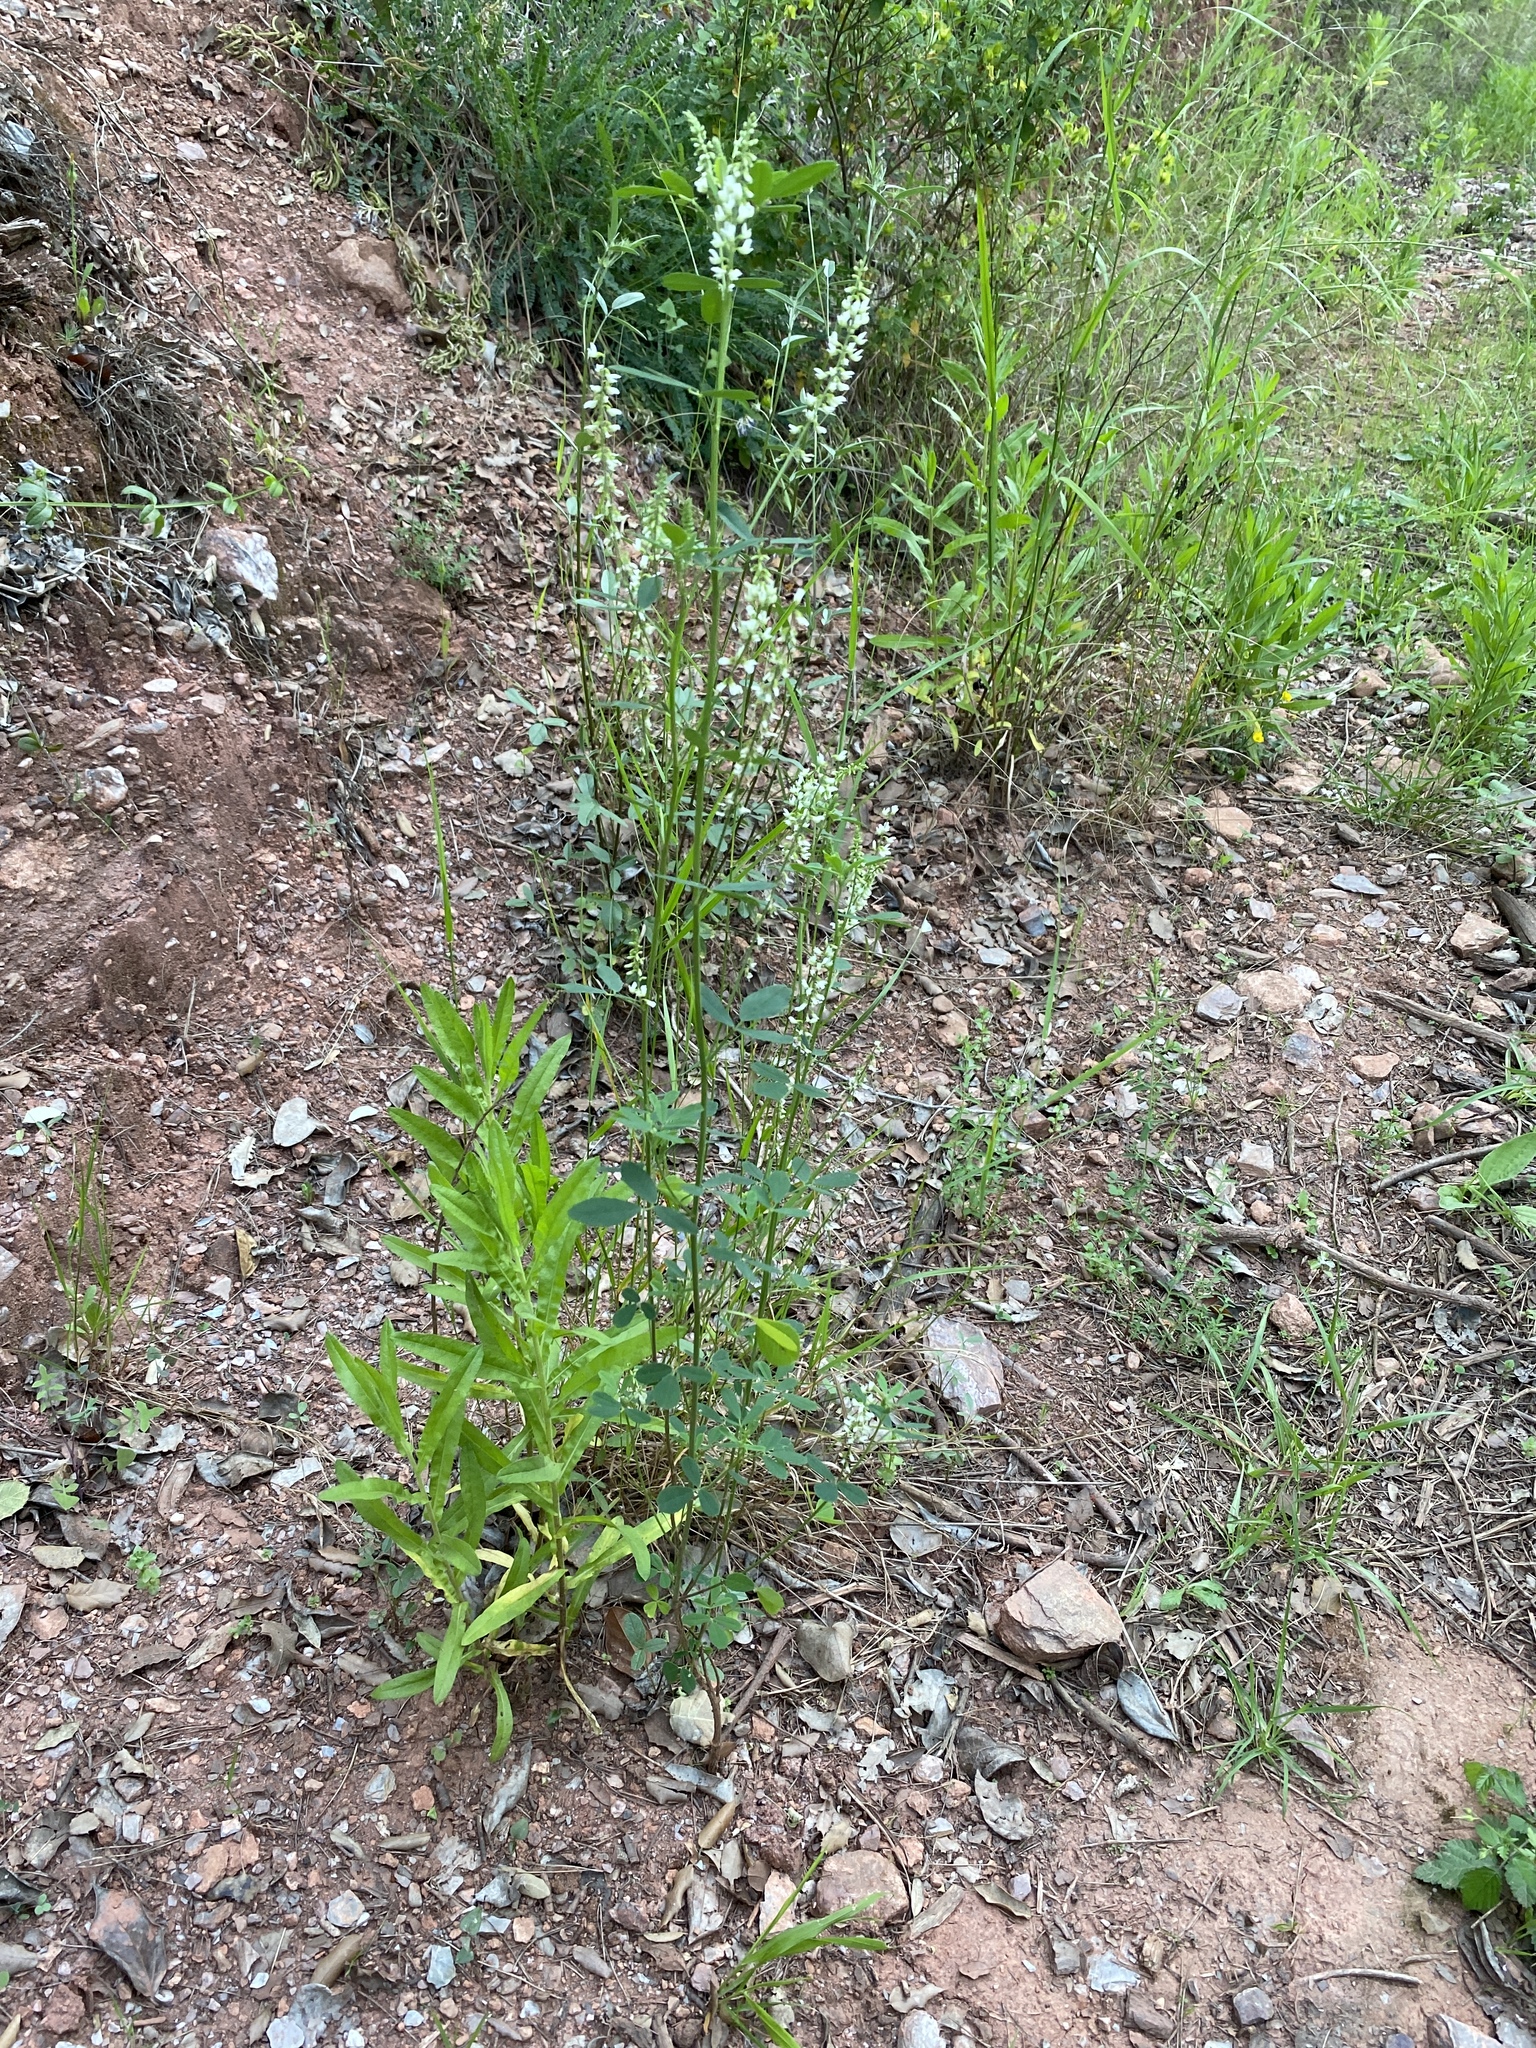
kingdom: Plantae
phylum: Tracheophyta
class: Magnoliopsida
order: Fabales
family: Fabaceae
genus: Melilotus
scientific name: Melilotus albus
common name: White melilot
